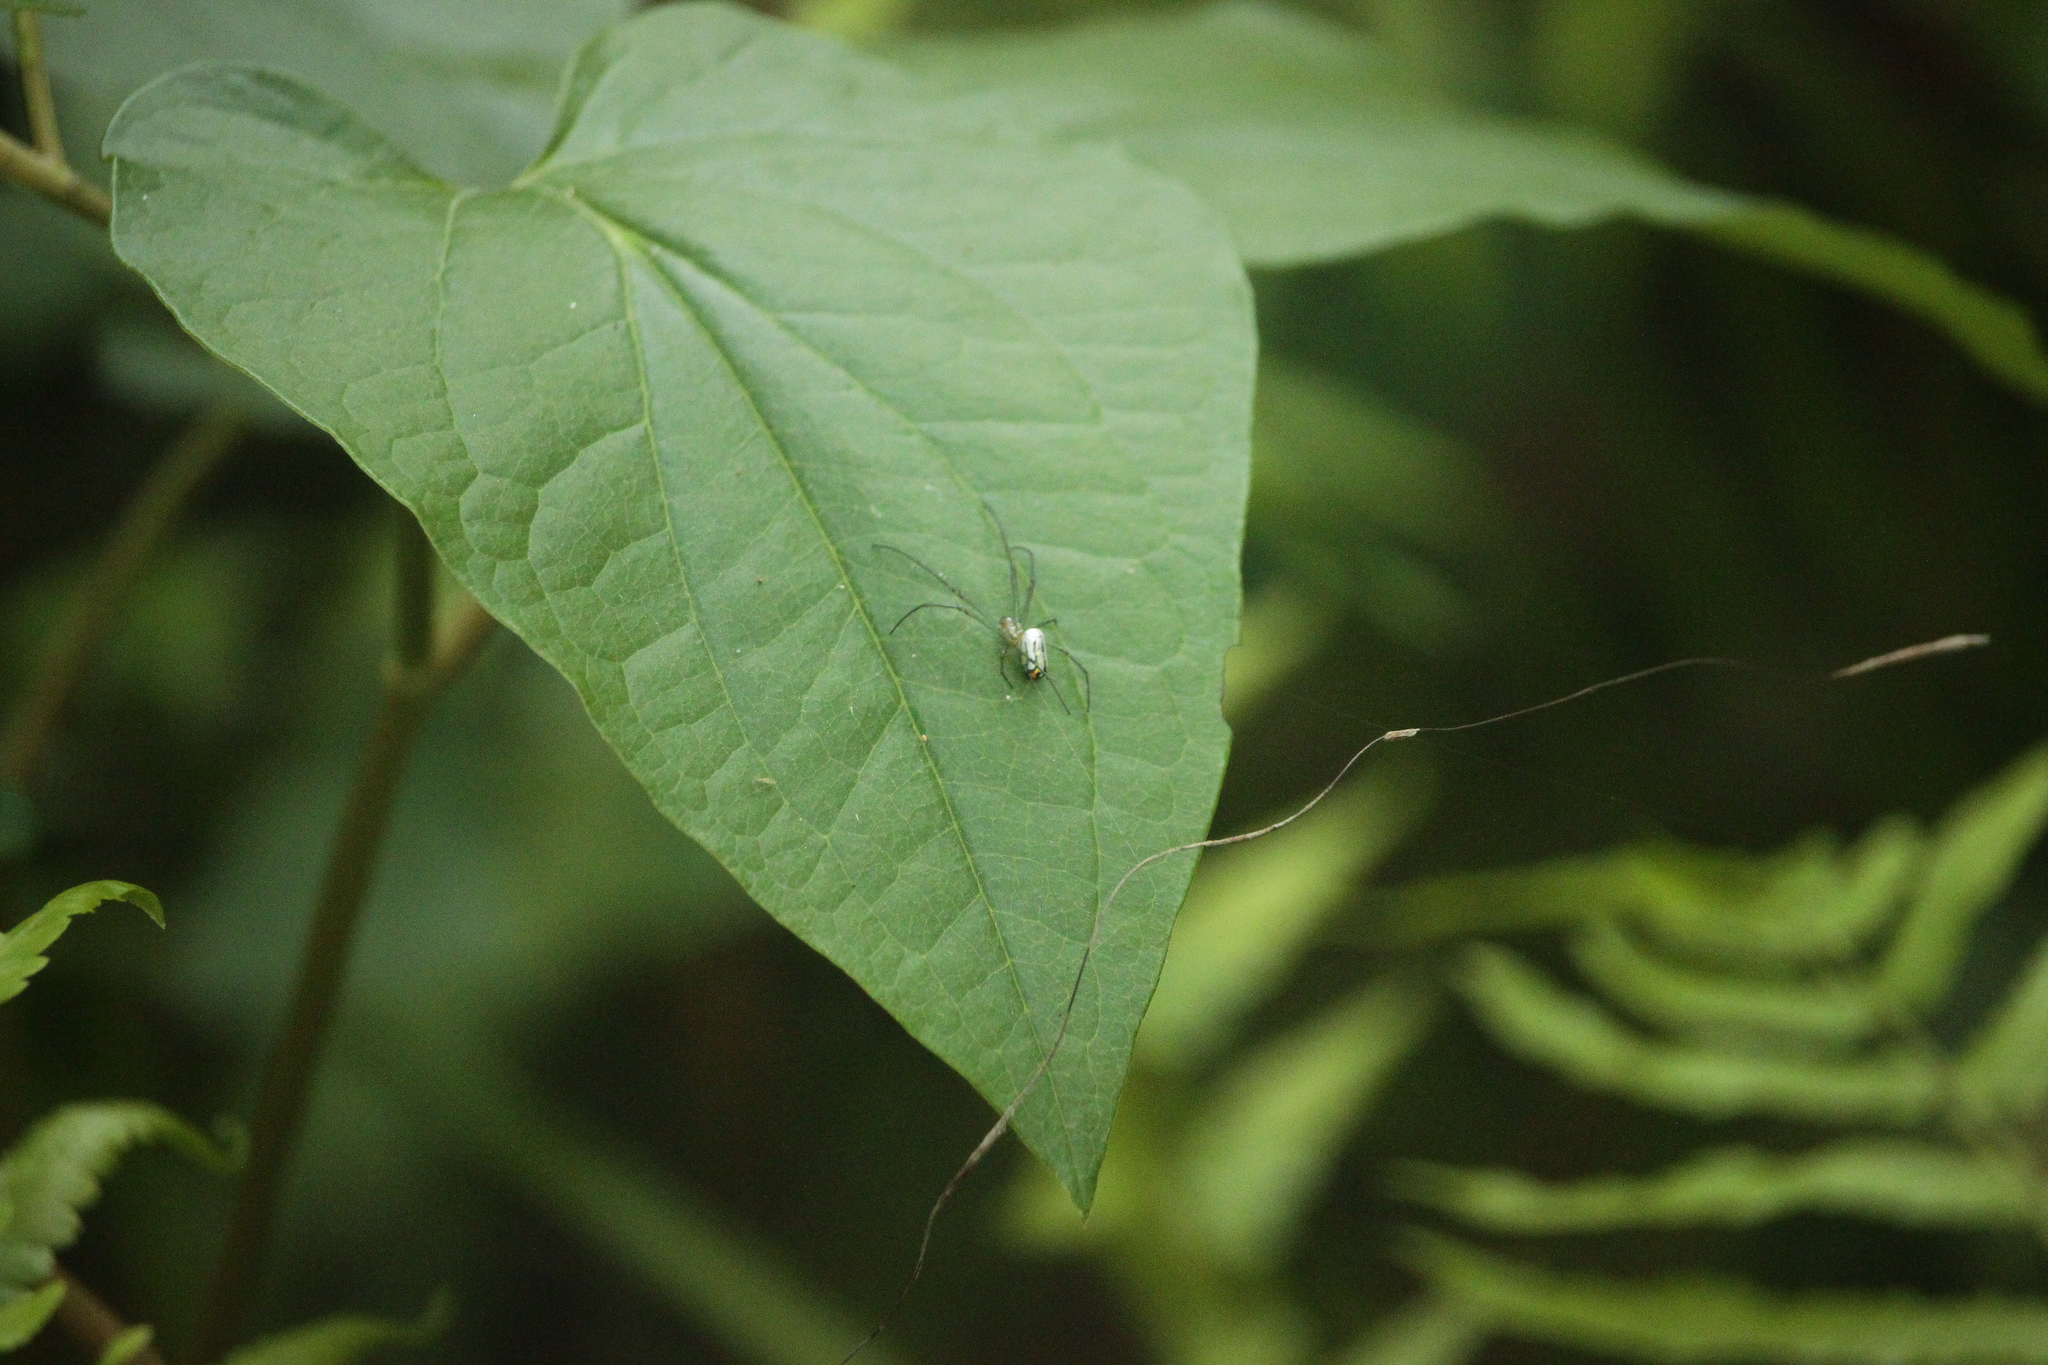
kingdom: Animalia
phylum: Arthropoda
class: Arachnida
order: Araneae
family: Tetragnathidae
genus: Leucauge
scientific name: Leucauge argyrobapta
